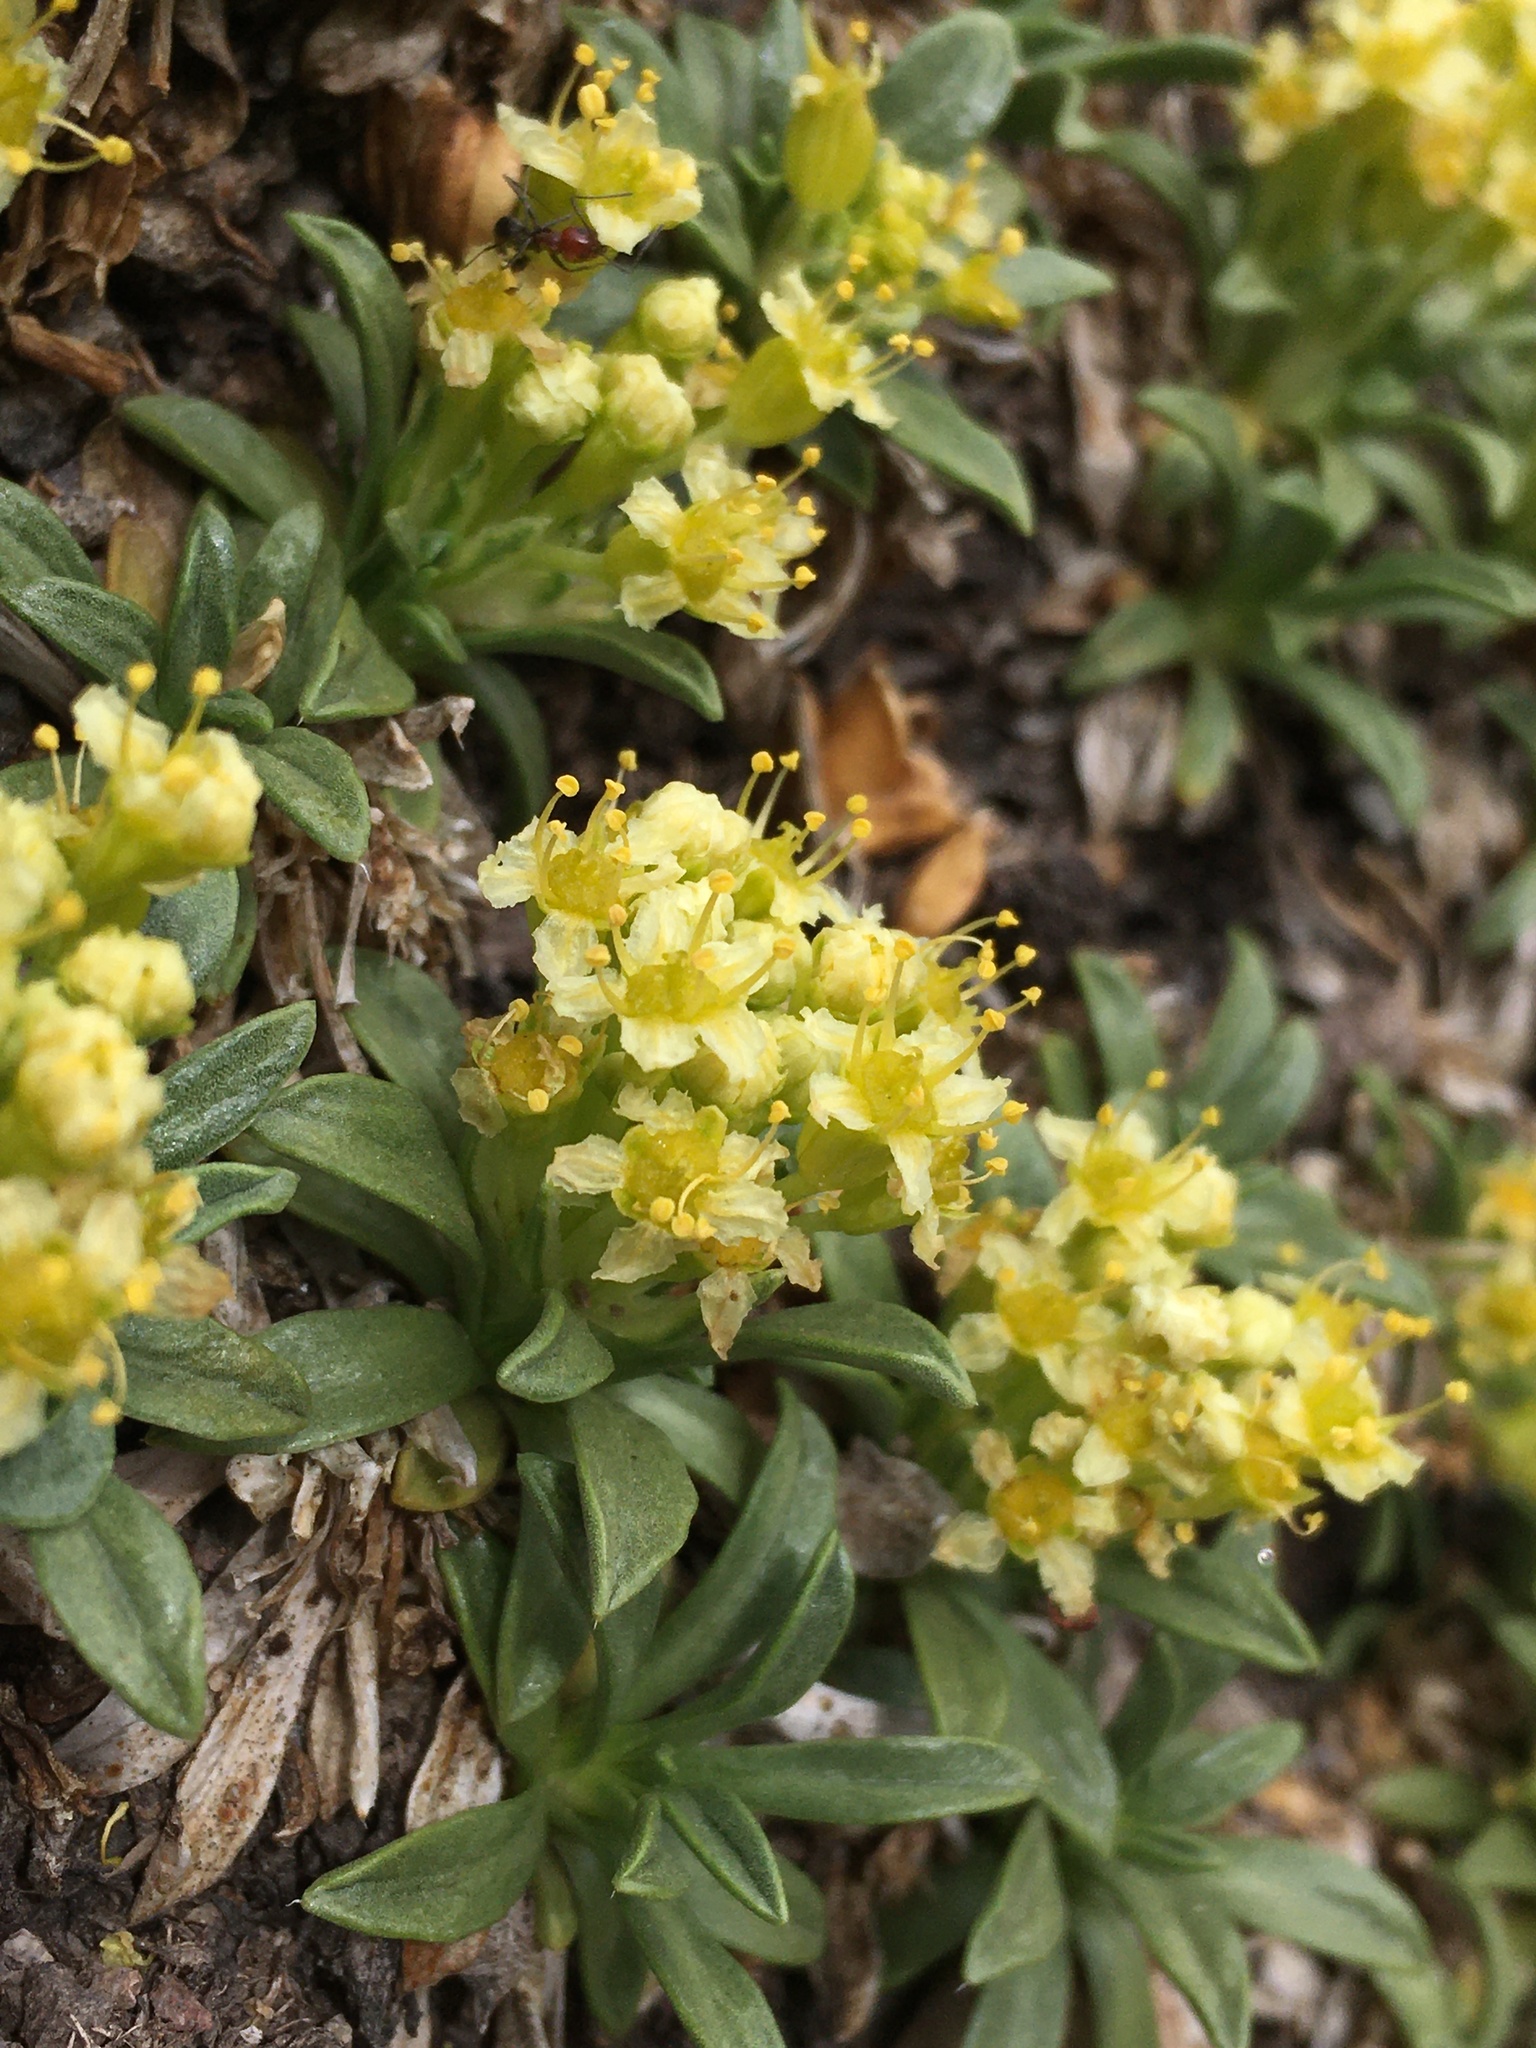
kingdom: Plantae
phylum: Tracheophyta
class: Magnoliopsida
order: Apiales
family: Apiaceae
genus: Azorella
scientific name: Azorella ruizii
